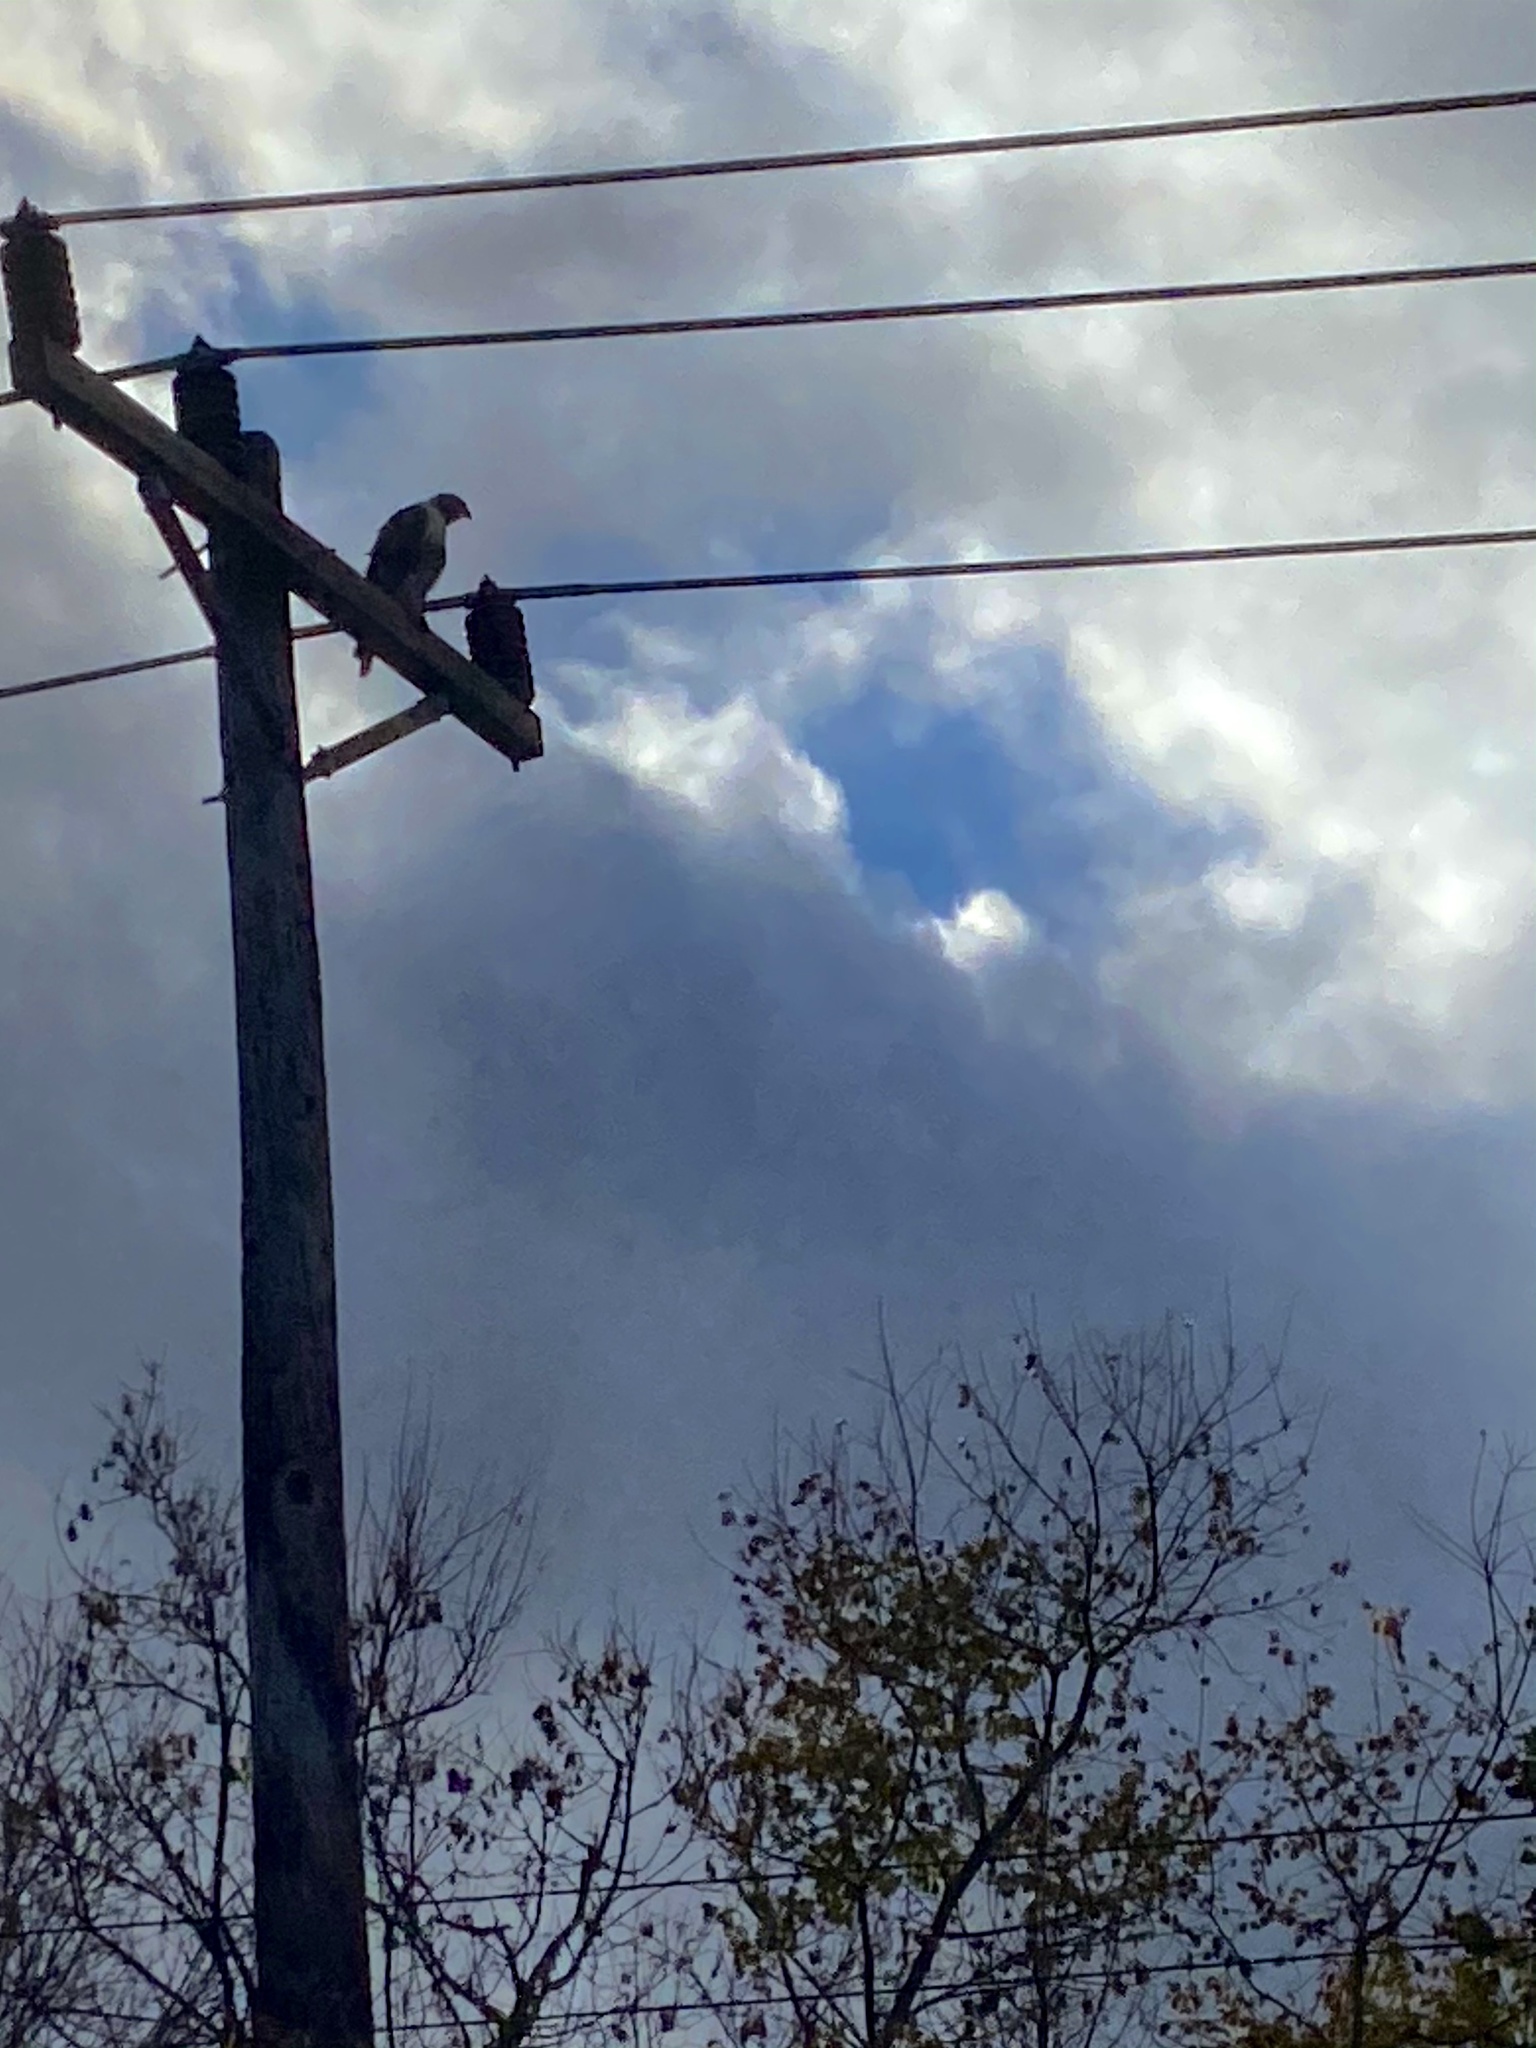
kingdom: Animalia
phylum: Chordata
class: Aves
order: Accipitriformes
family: Accipitridae
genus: Buteo
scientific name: Buteo jamaicensis
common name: Red-tailed hawk
